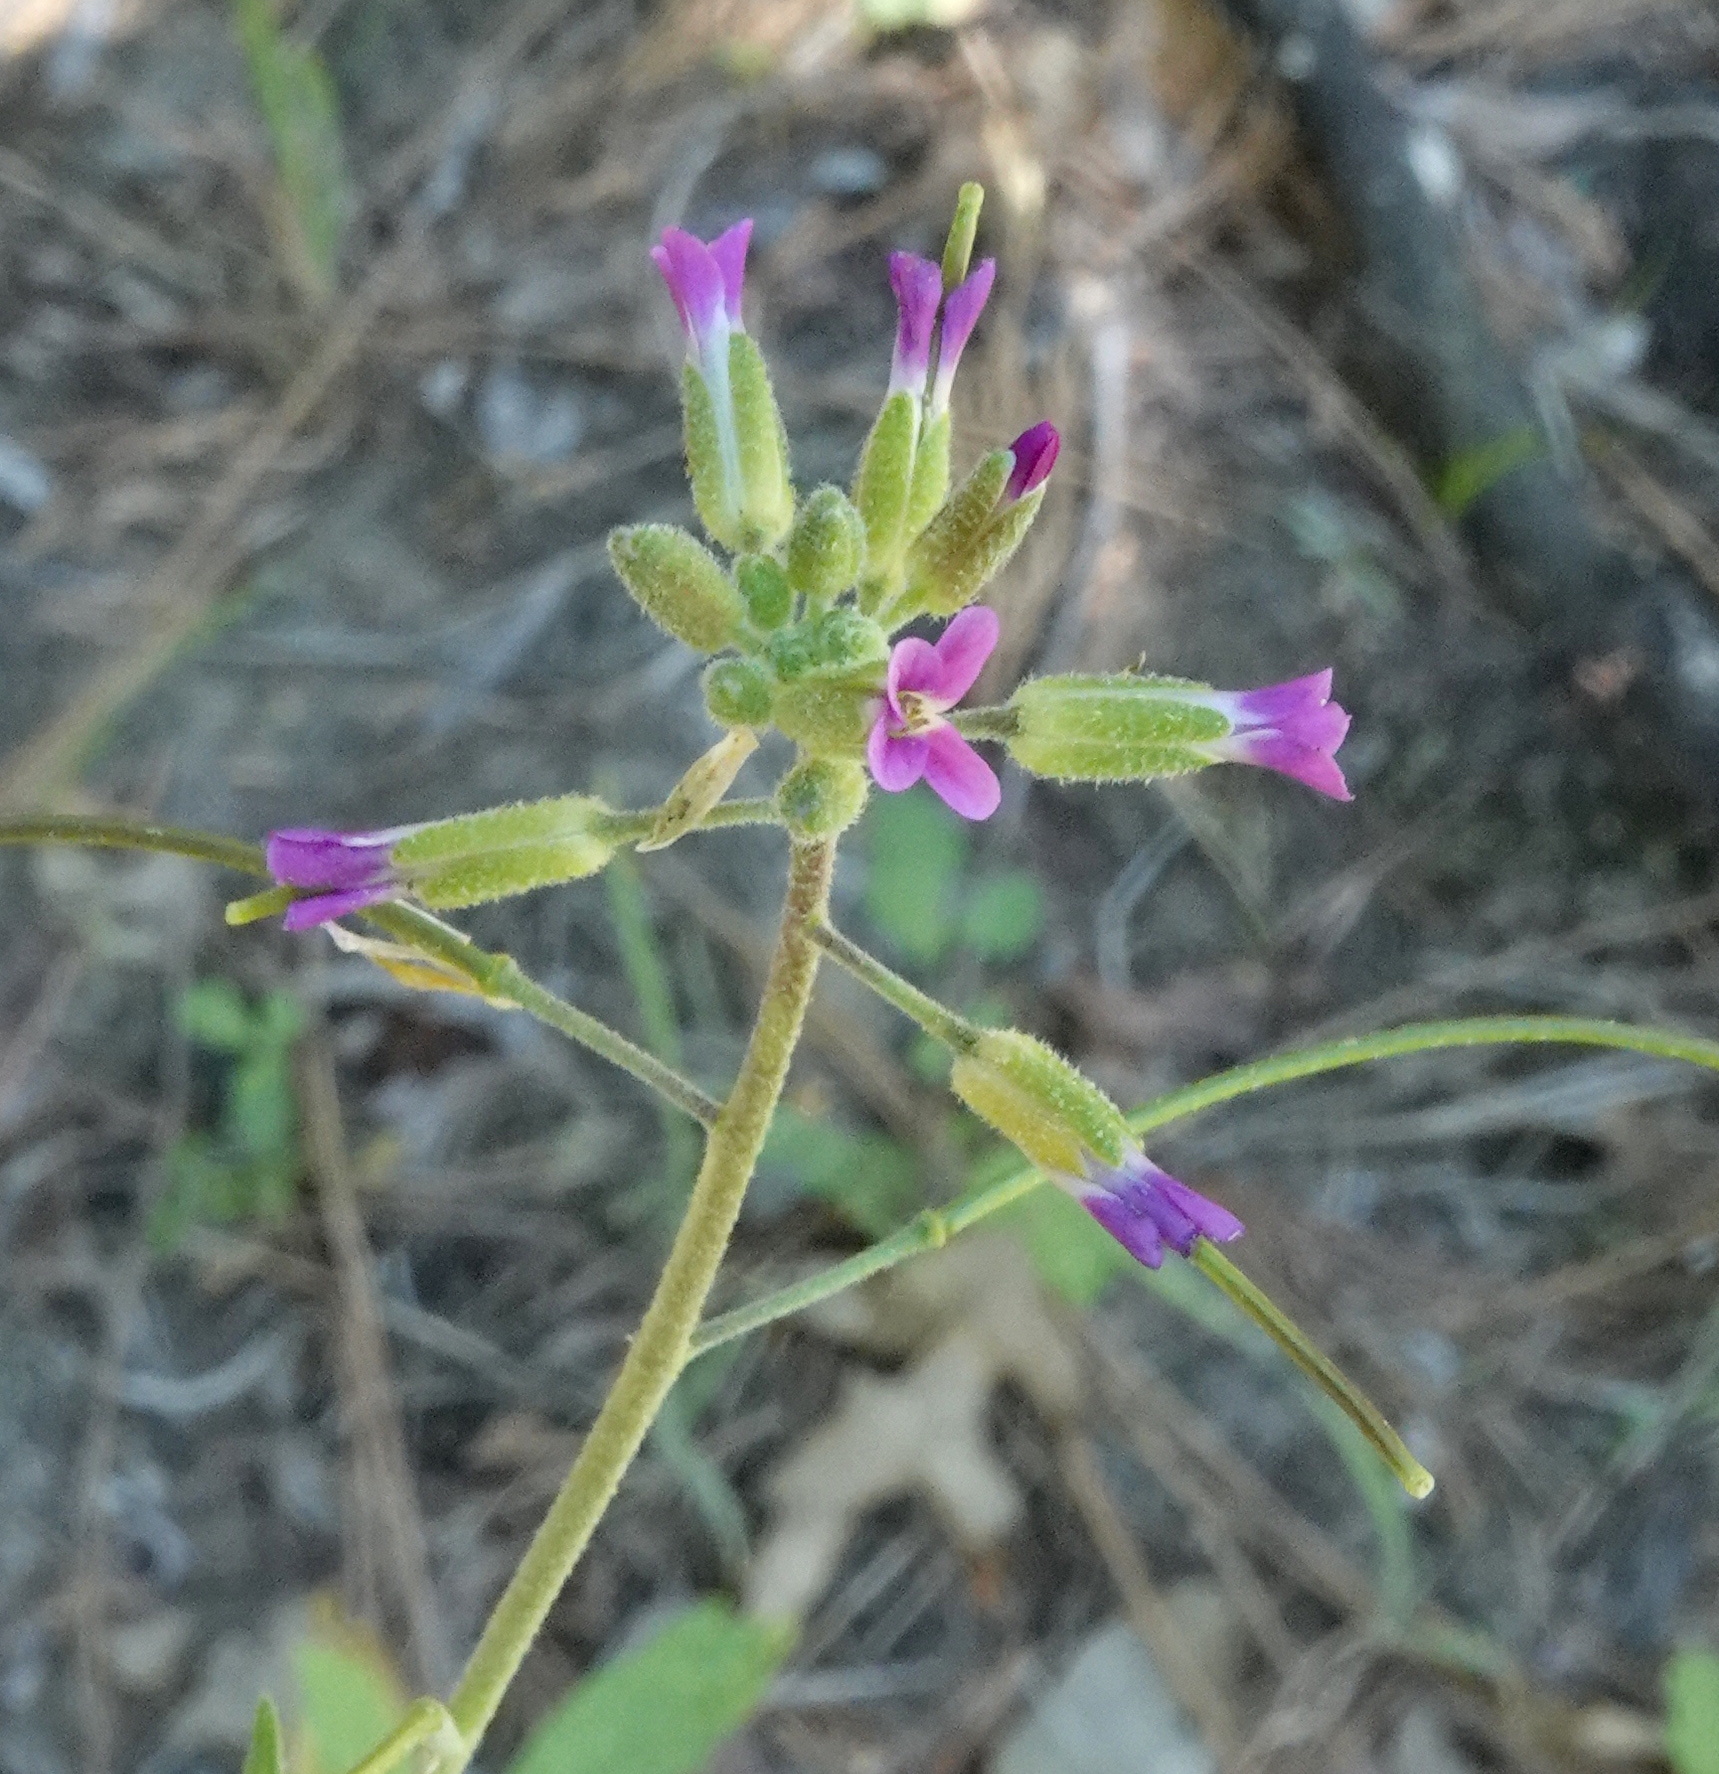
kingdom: Plantae
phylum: Tracheophyta
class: Magnoliopsida
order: Brassicales
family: Brassicaceae
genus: Boechera
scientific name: Boechera californica
